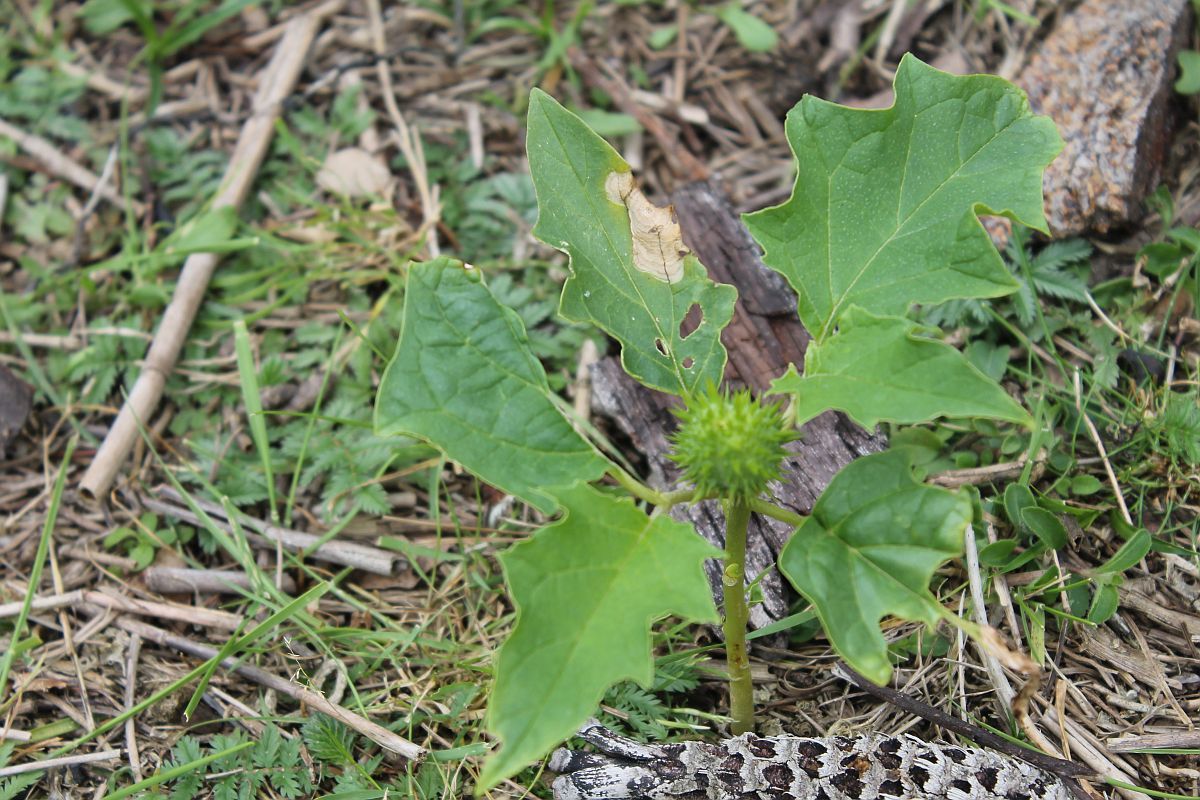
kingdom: Plantae
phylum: Tracheophyta
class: Magnoliopsida
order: Solanales
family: Solanaceae
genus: Datura
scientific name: Datura stramonium
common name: Thorn-apple
